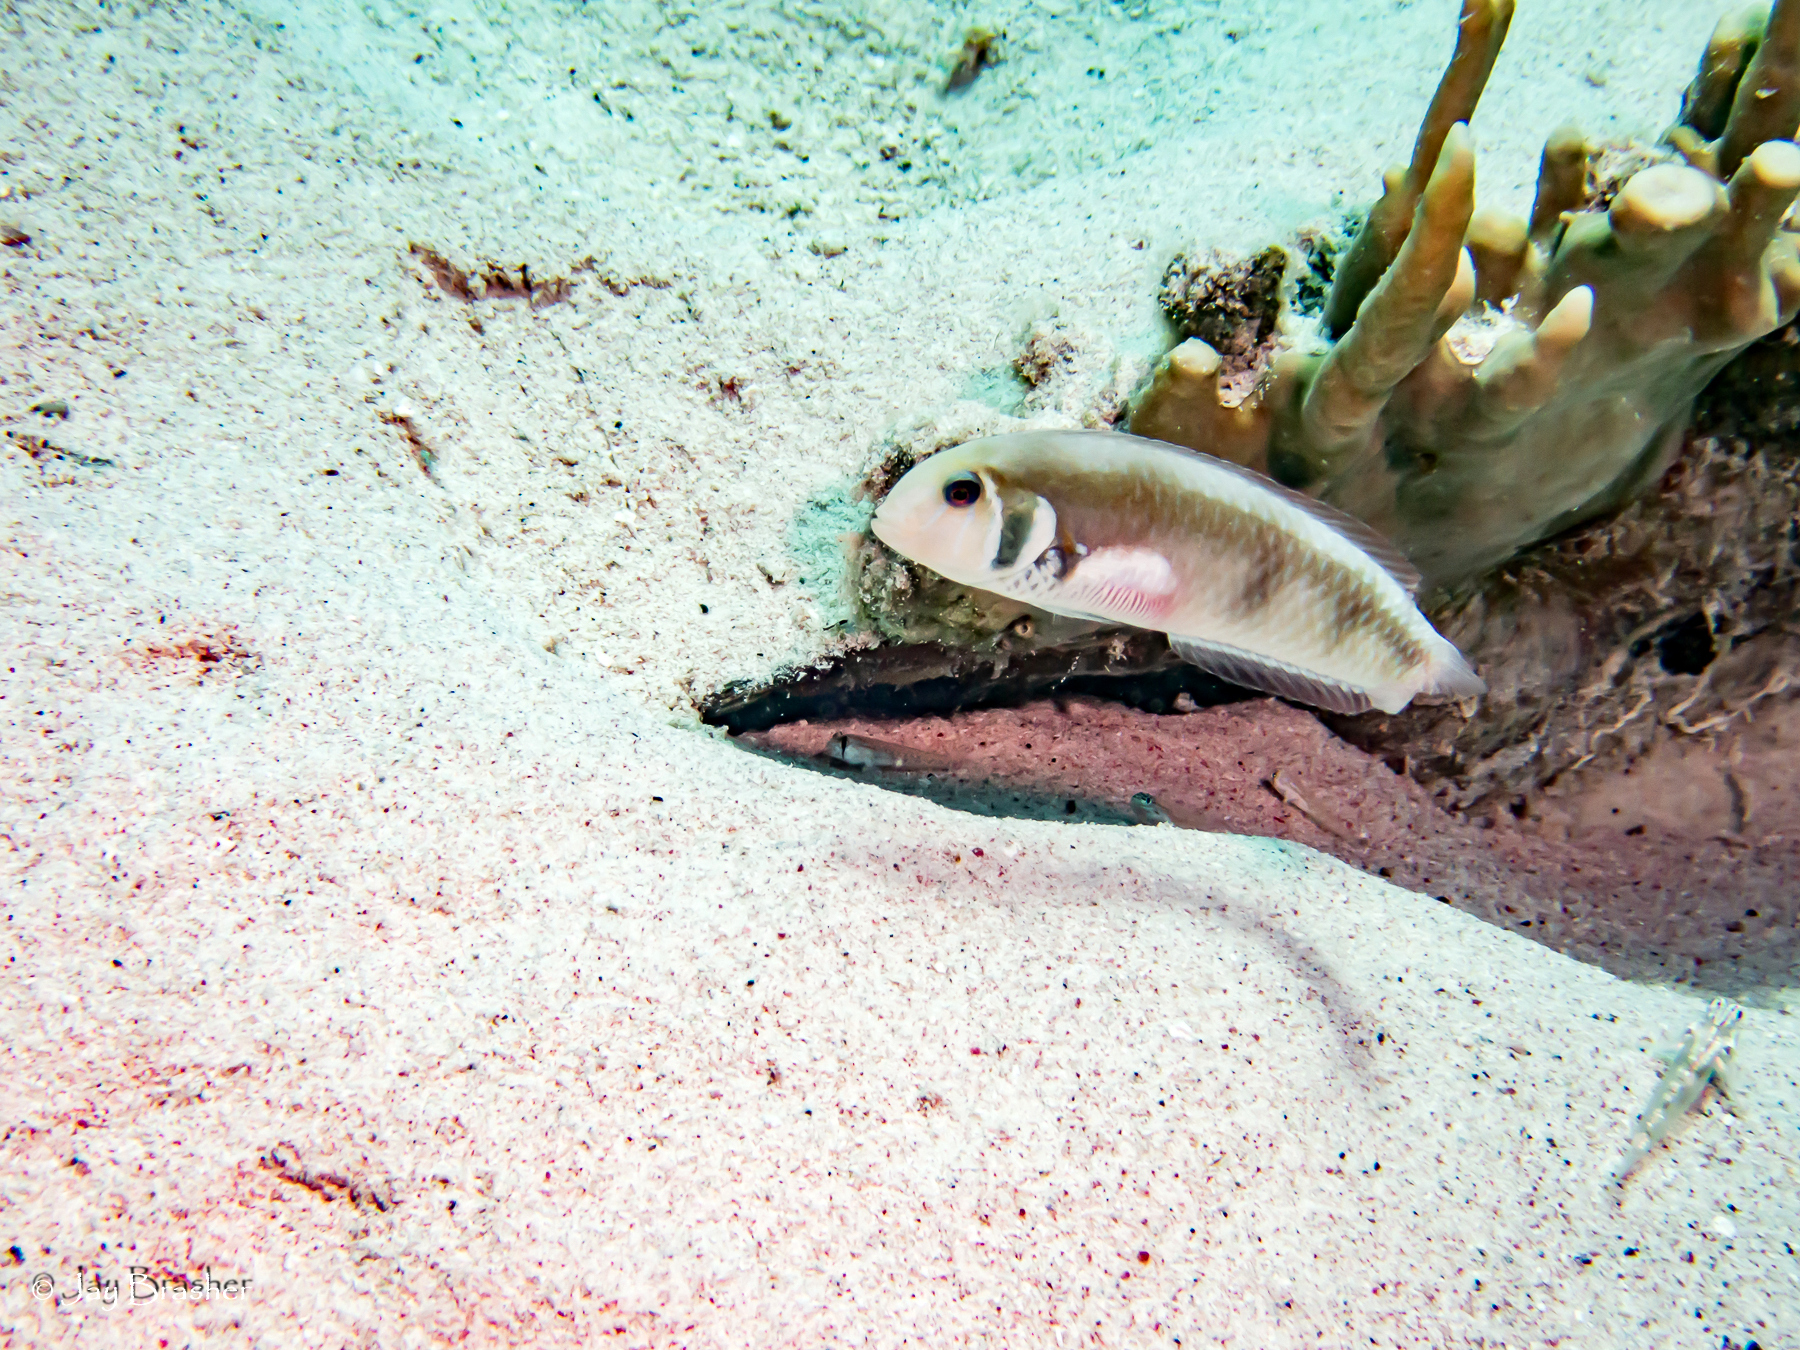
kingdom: Animalia
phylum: Chordata
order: Perciformes
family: Labridae
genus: Xyrichtys
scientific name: Xyrichtys martinicensis
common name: Rosy razorfish
